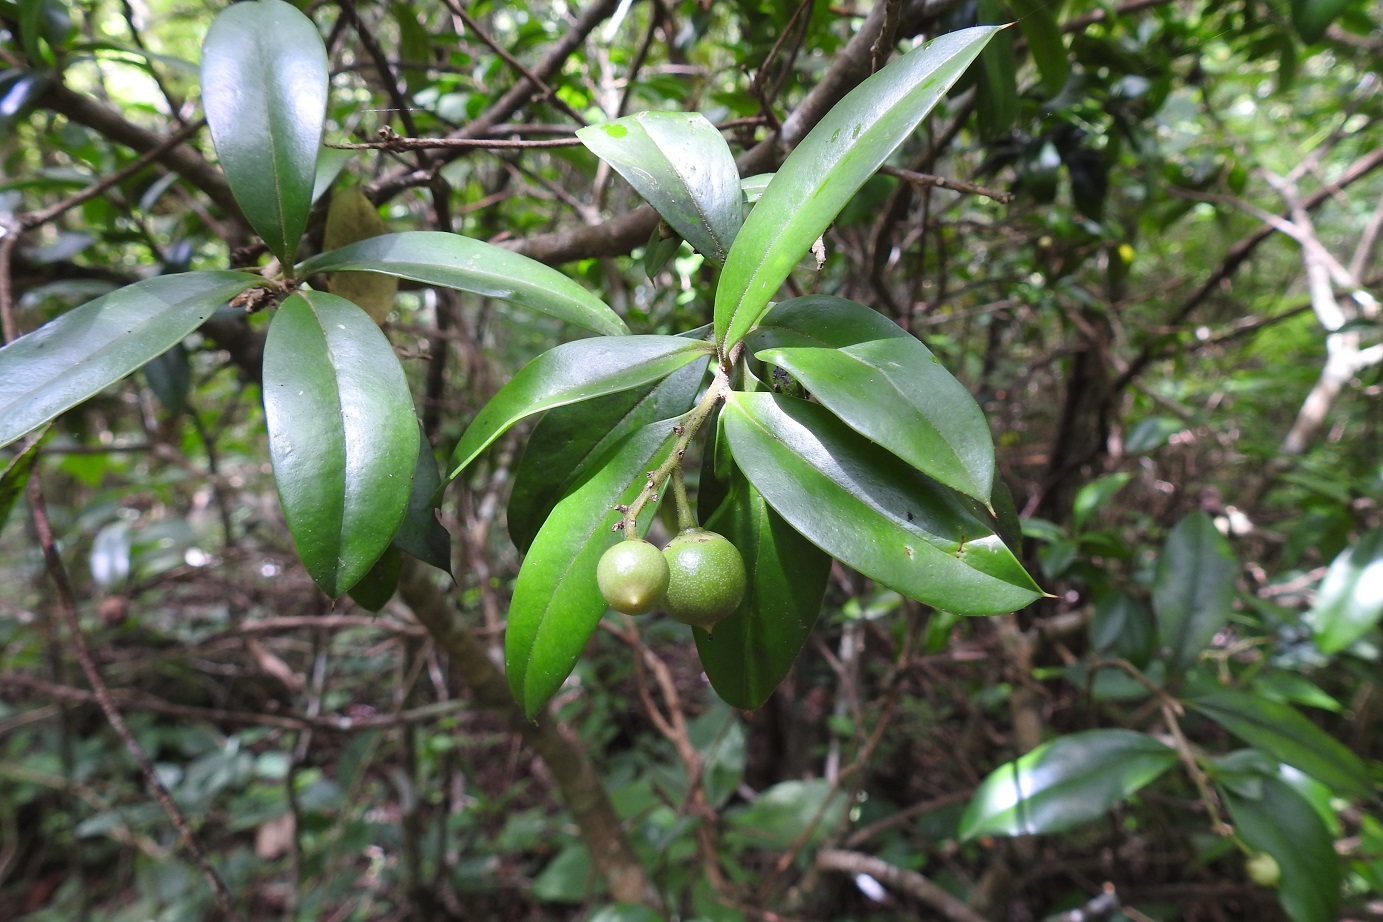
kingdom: Plantae
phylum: Tracheophyta
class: Magnoliopsida
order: Ericales
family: Primulaceae
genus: Bonellia
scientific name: Bonellia macrocarpa
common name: Primrose
